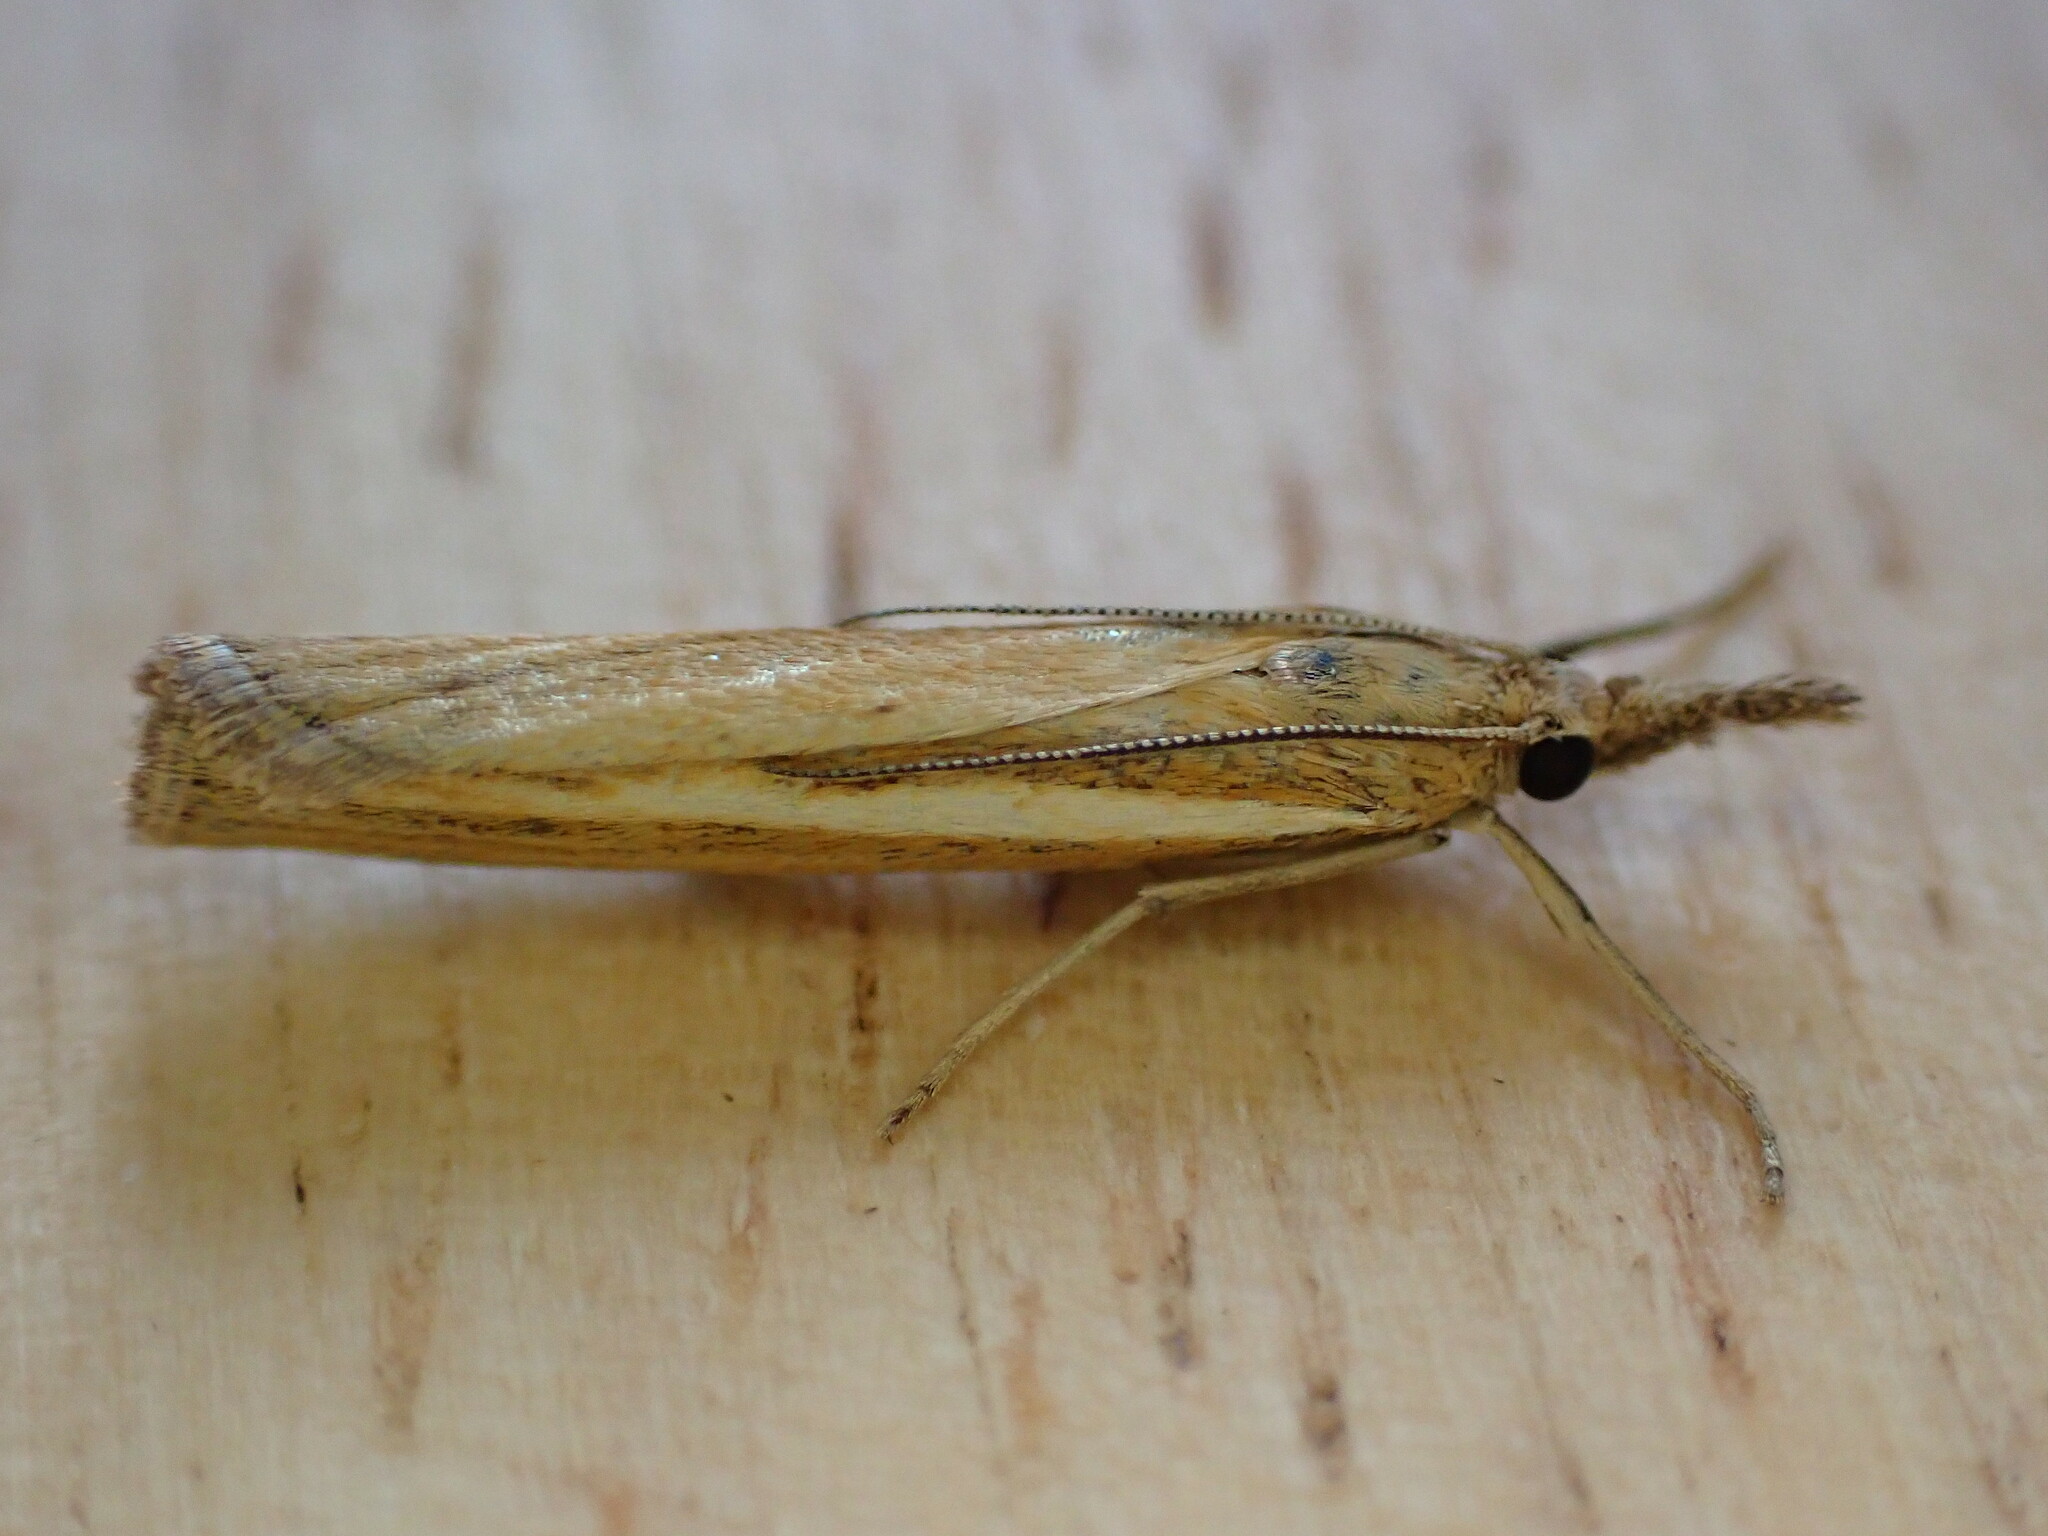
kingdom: Animalia
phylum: Arthropoda
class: Insecta
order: Lepidoptera
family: Crambidae
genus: Agriphila
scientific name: Agriphila tristellus
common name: Common grass-veneer
